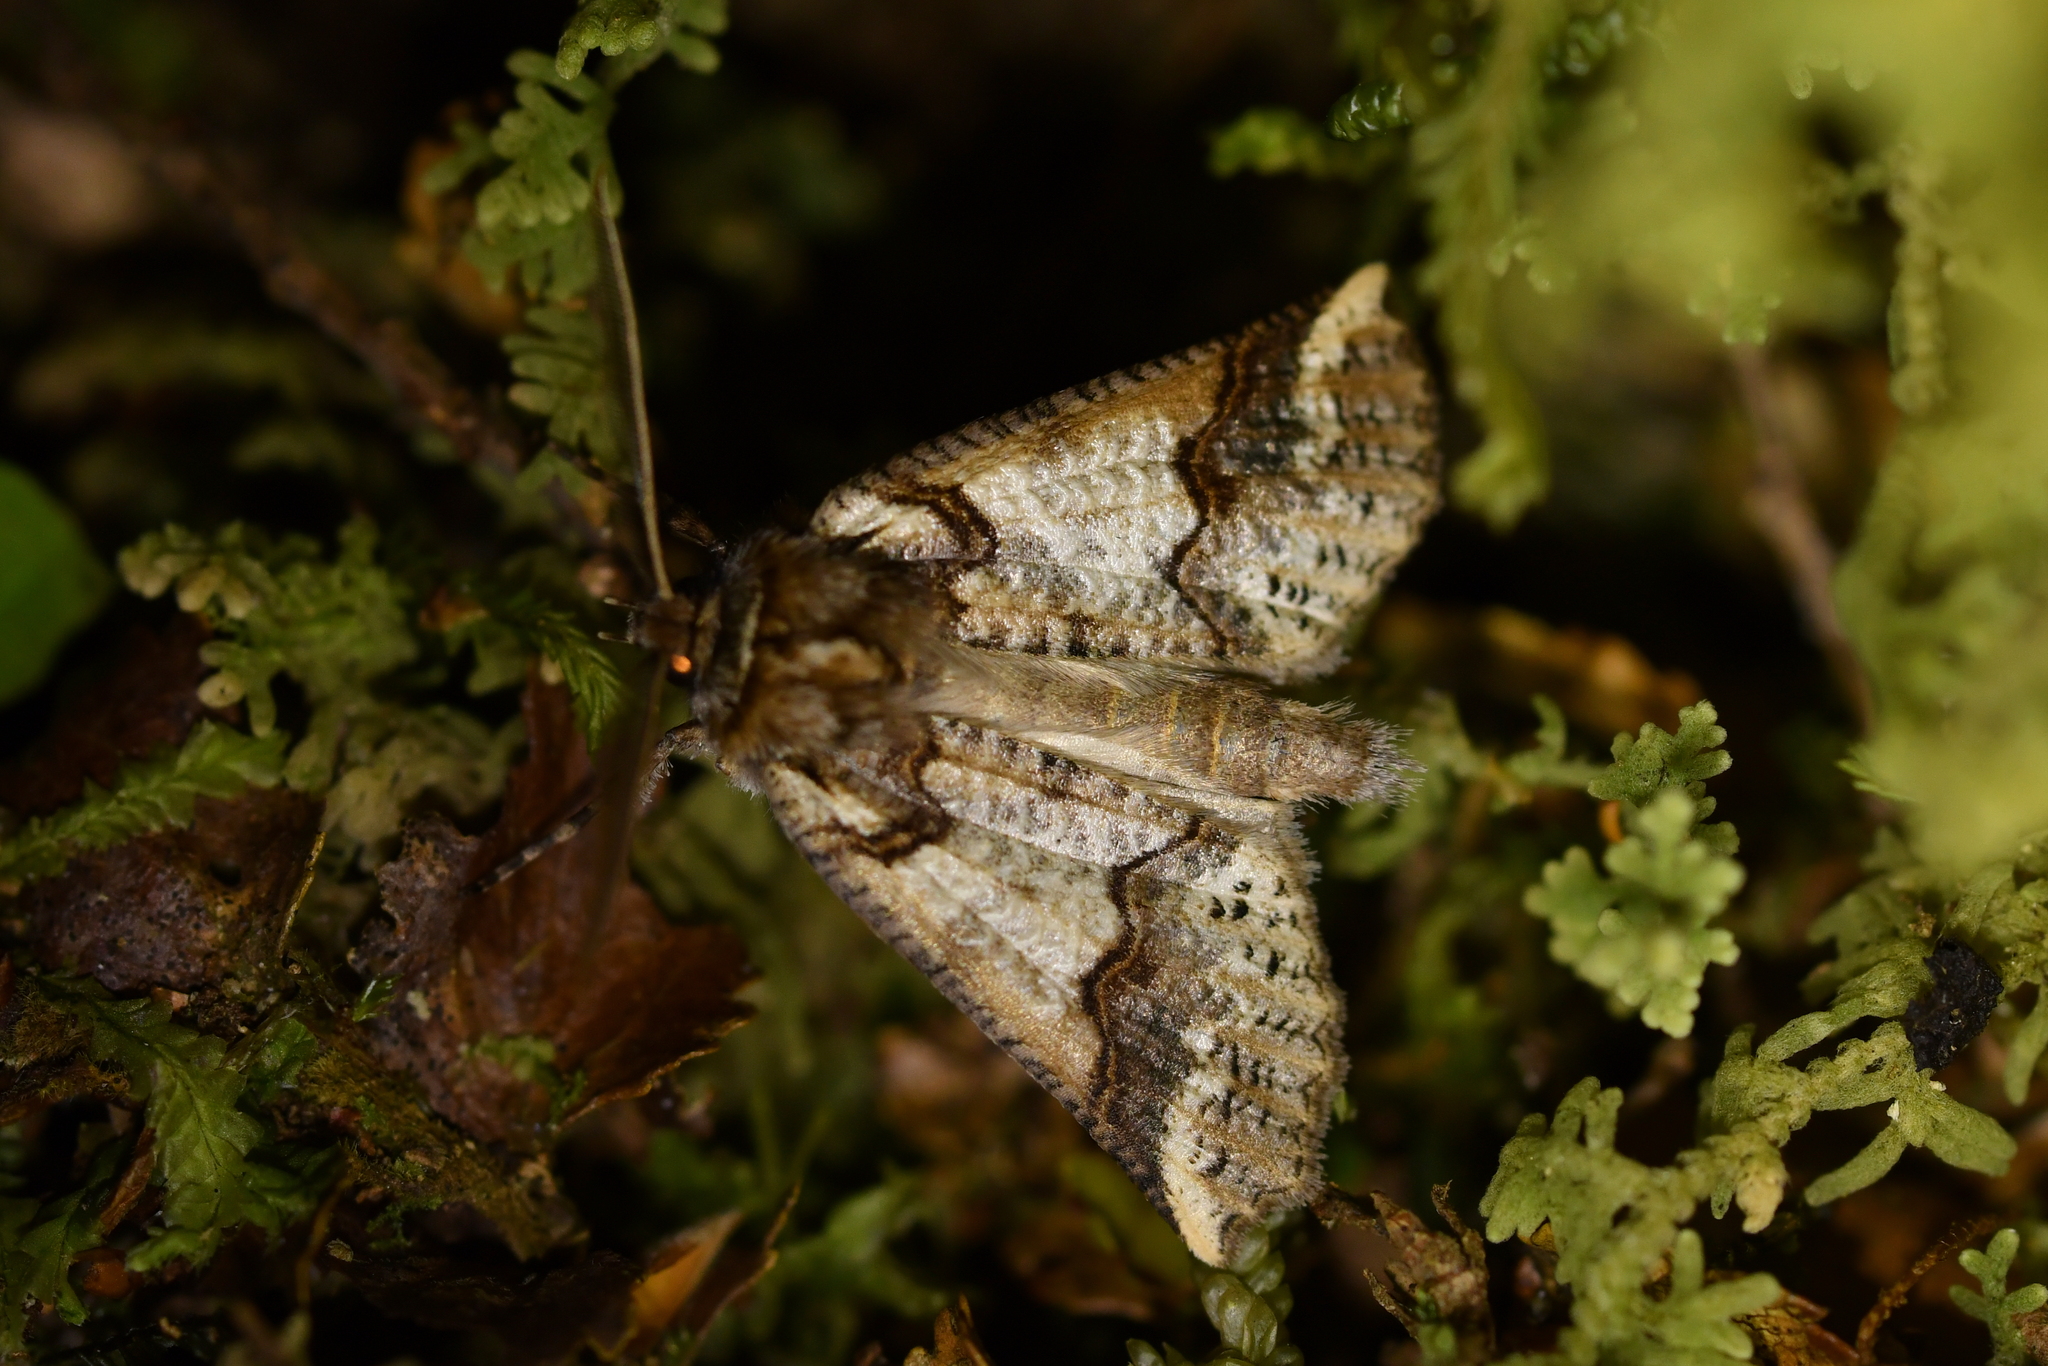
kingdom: Animalia
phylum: Arthropoda
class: Insecta
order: Lepidoptera
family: Geometridae
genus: Declana
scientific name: Declana
